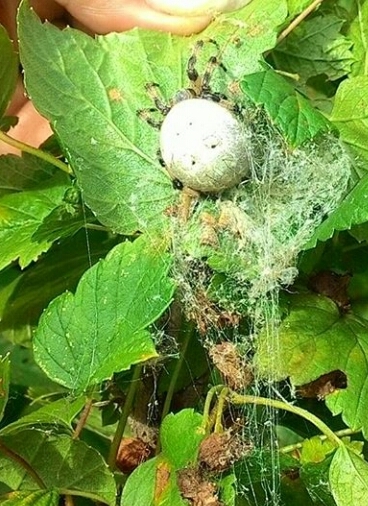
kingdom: Animalia
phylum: Arthropoda
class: Arachnida
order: Araneae
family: Araneidae
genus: Araneus
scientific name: Araneus quadratus
